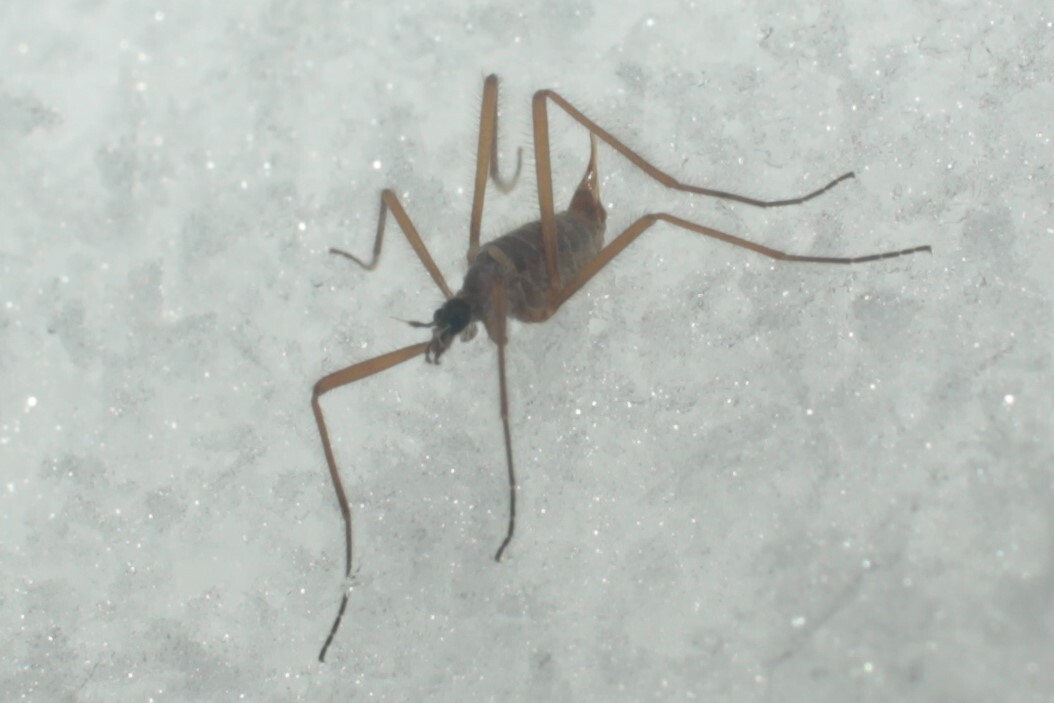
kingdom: Animalia
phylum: Arthropoda
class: Insecta
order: Diptera
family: Limoniidae
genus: Chionea
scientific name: Chionea
